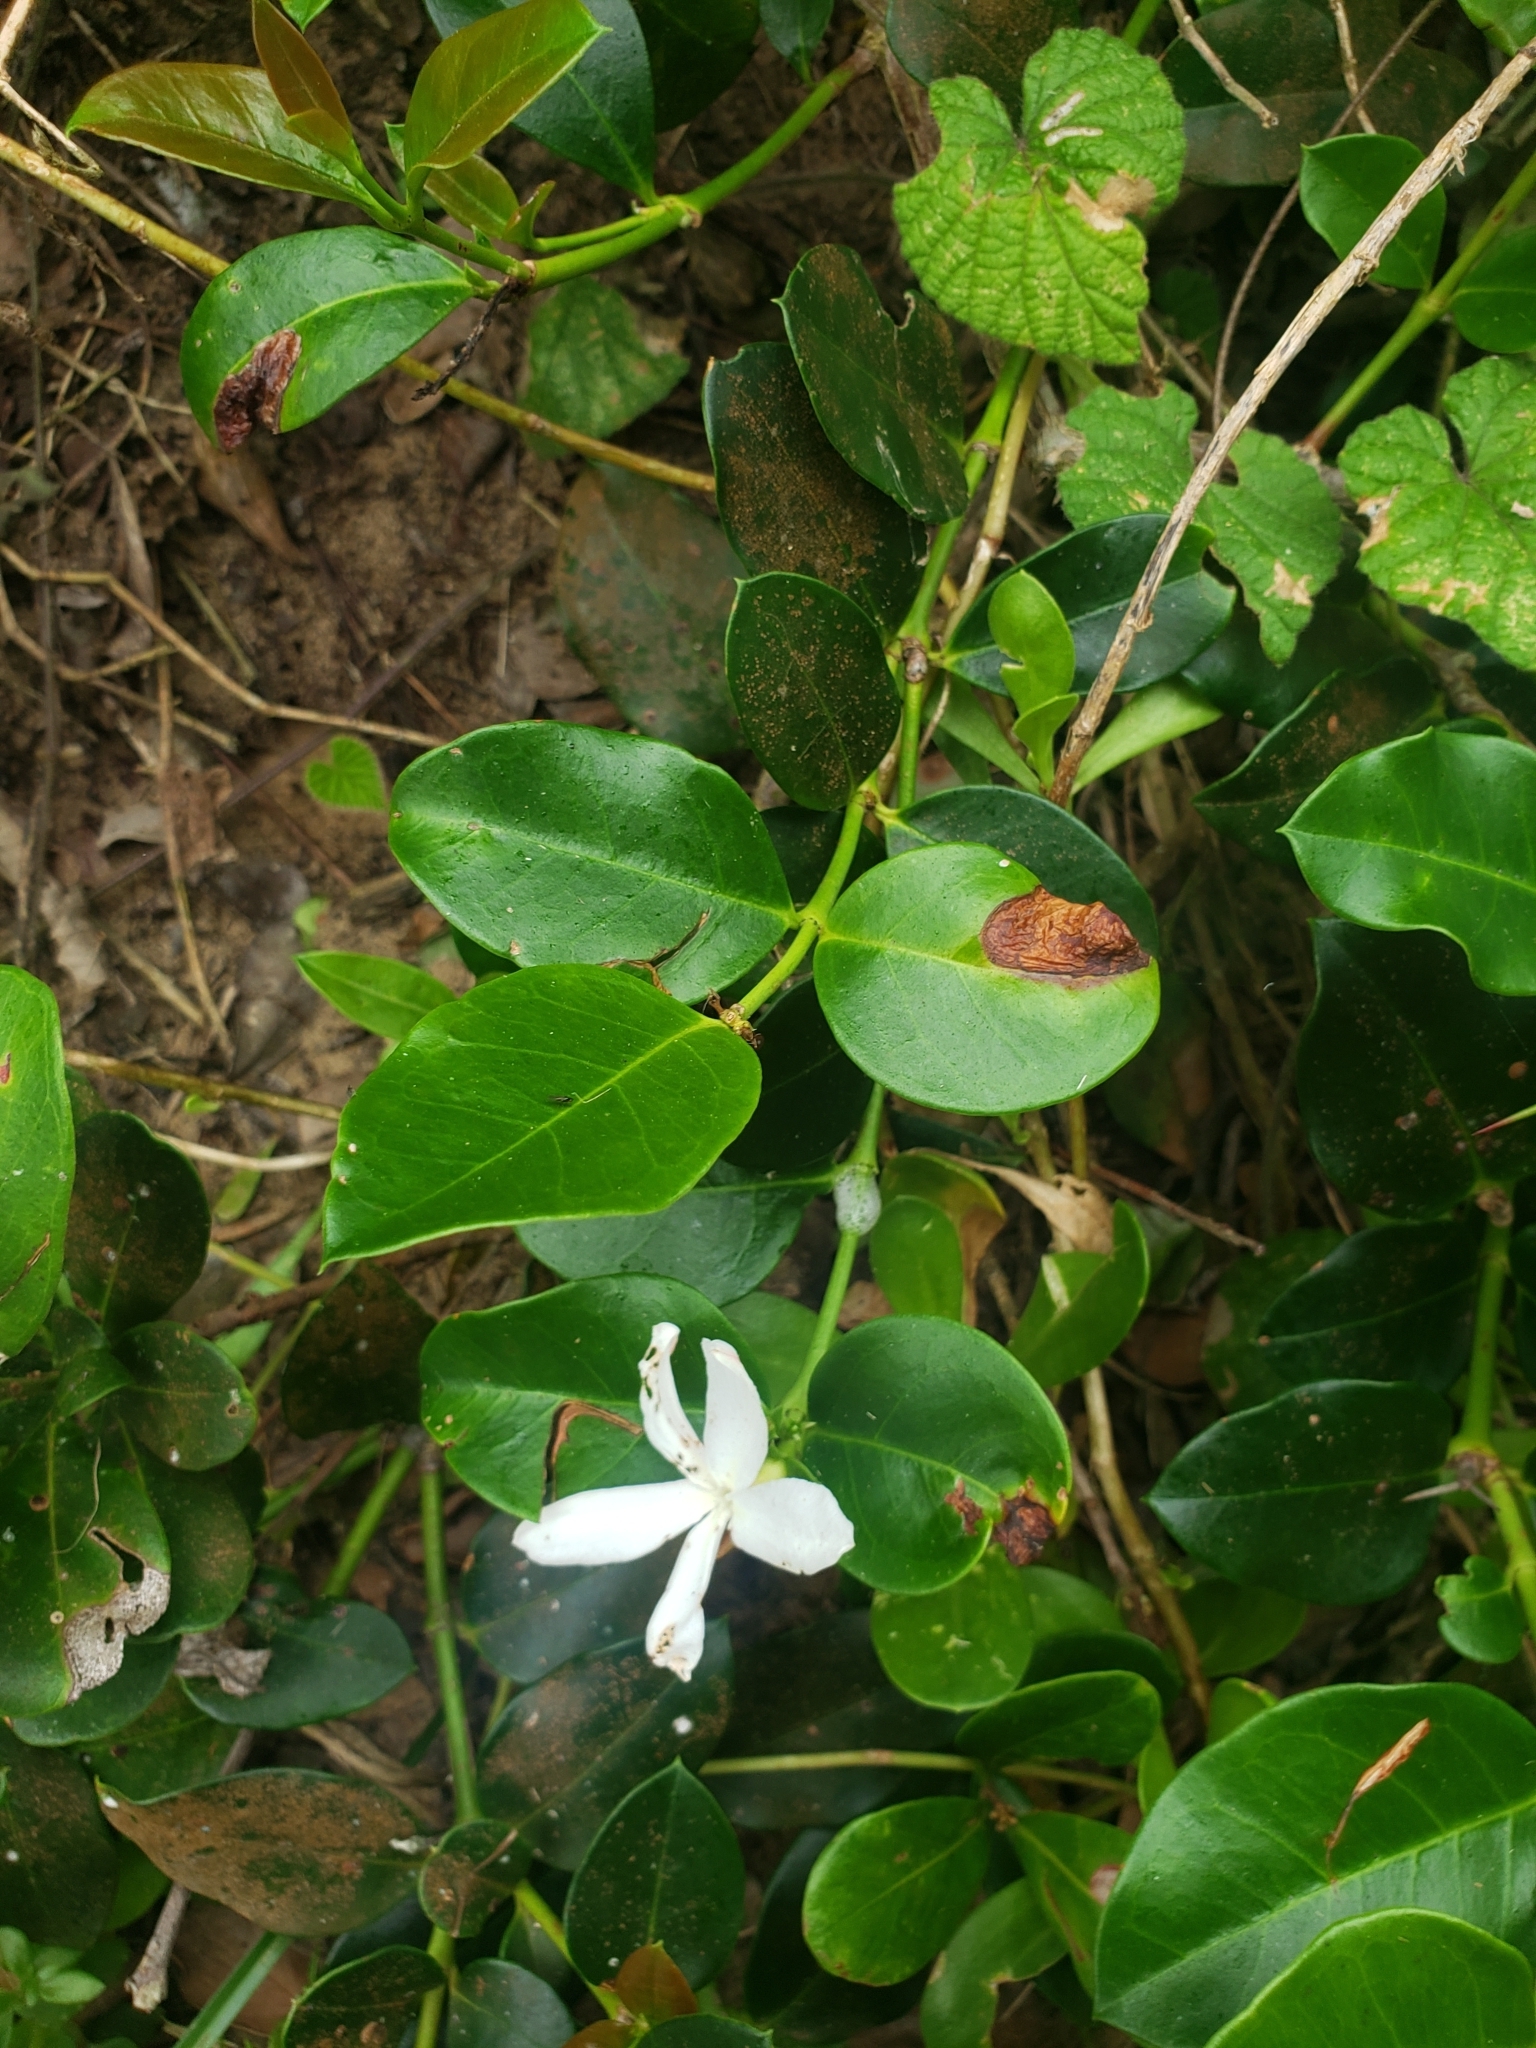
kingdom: Plantae
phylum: Tracheophyta
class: Magnoliopsida
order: Gentianales
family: Apocynaceae
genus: Carissa
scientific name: Carissa macrocarpa
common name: Natal plum
